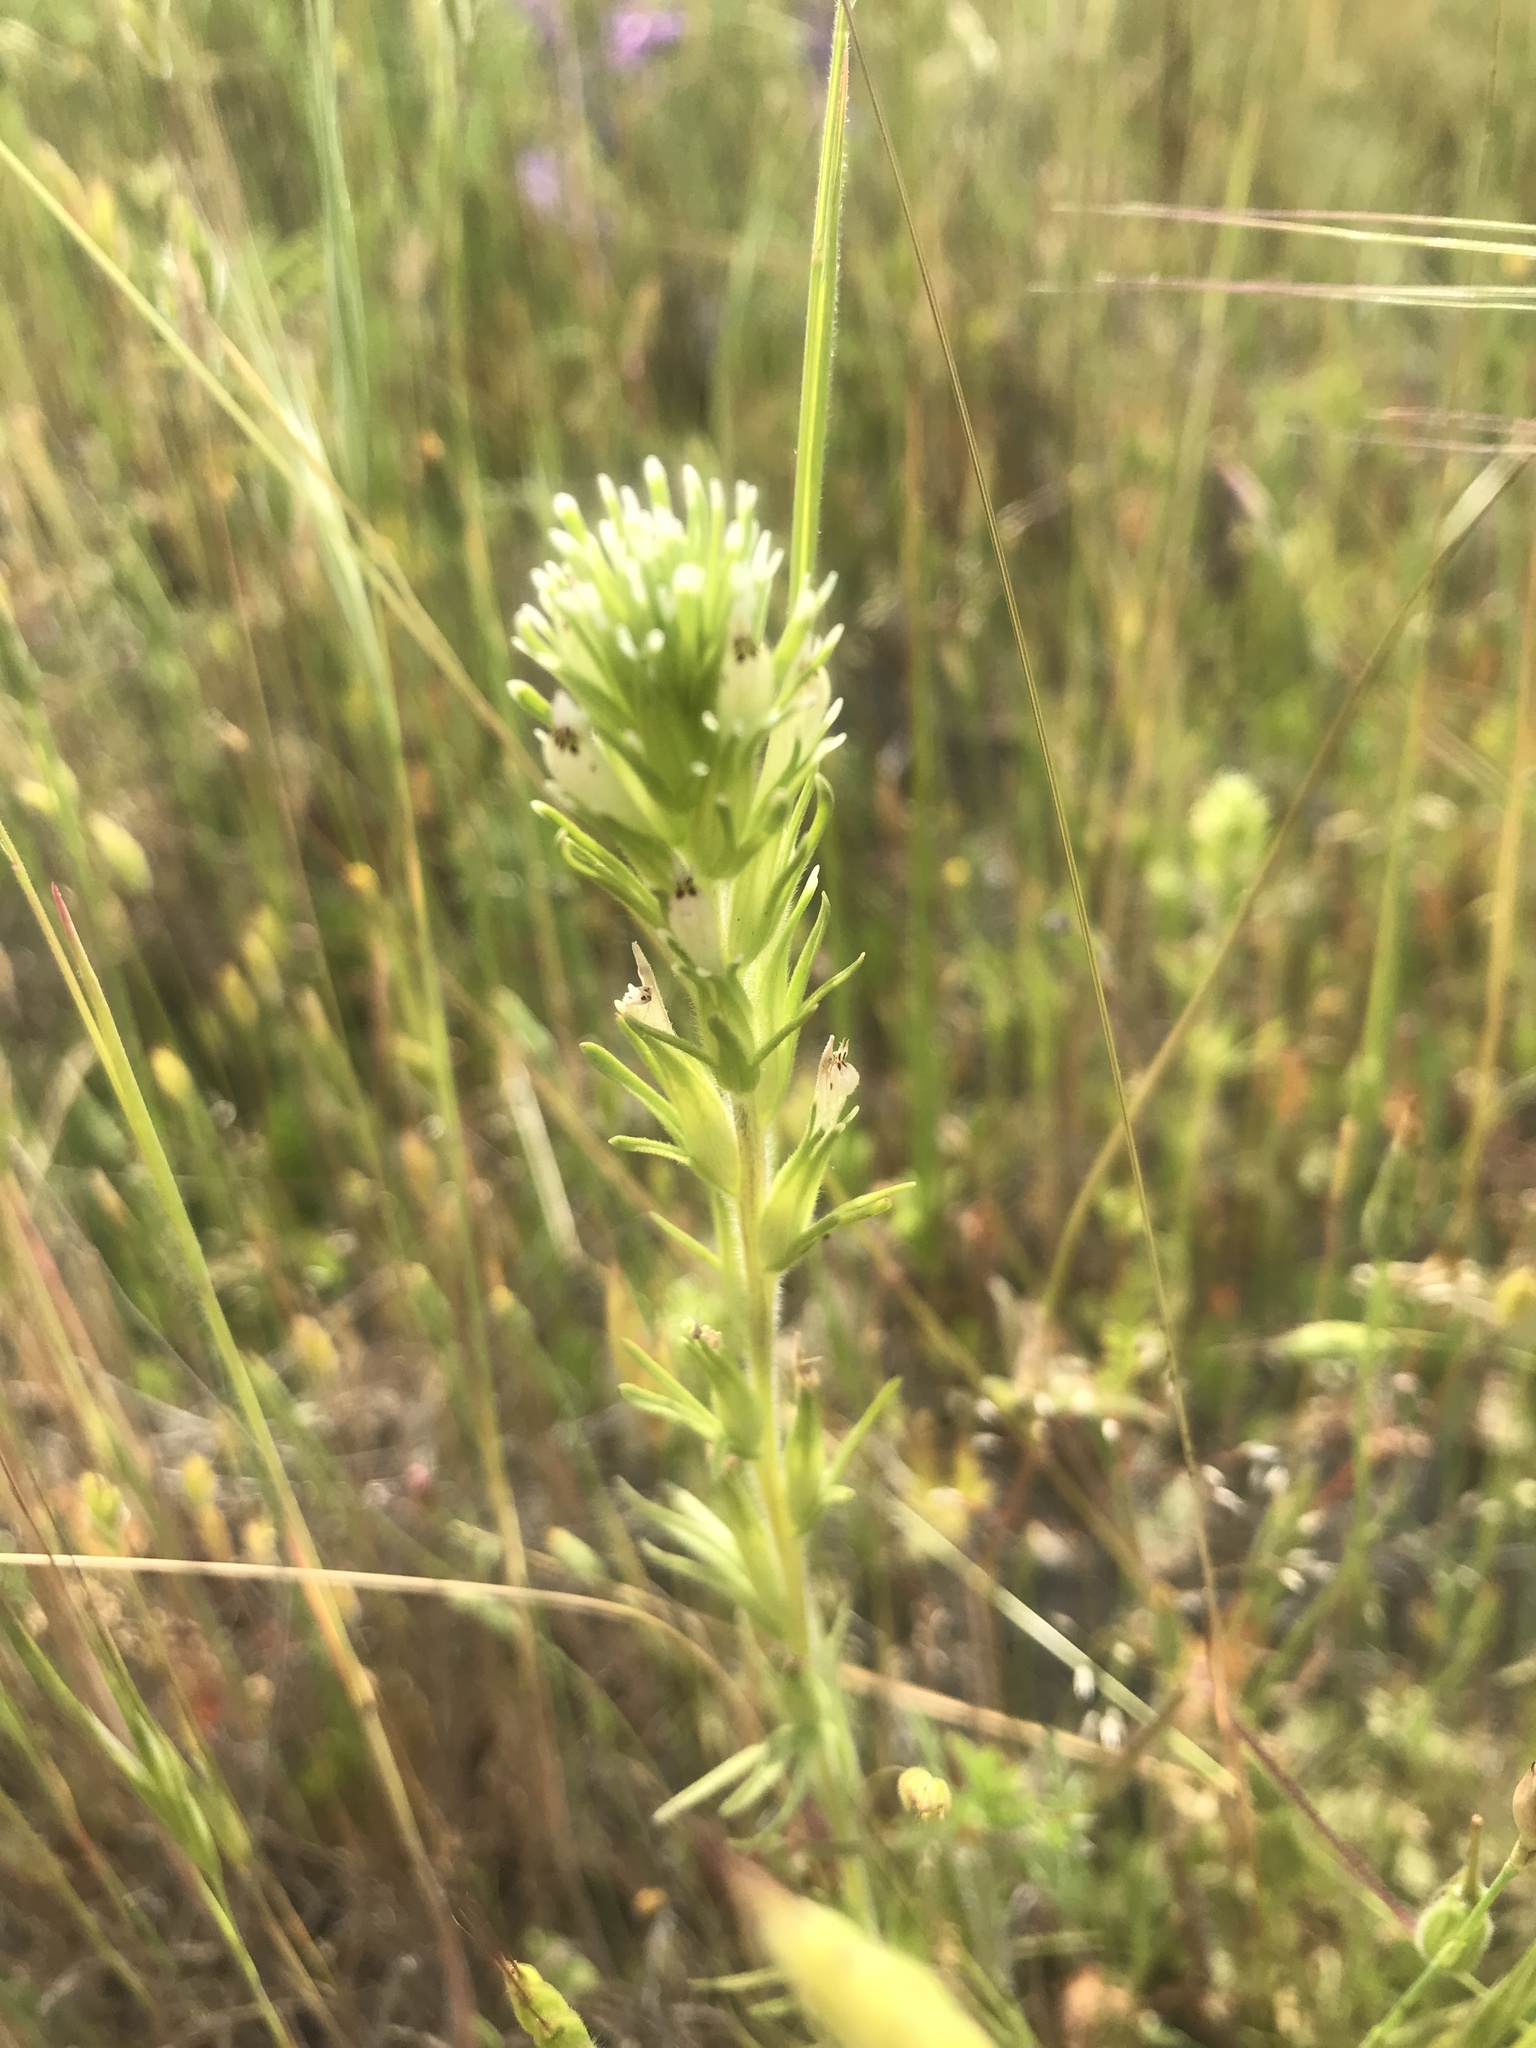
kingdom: Plantae
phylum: Tracheophyta
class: Magnoliopsida
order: Lamiales
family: Orobanchaceae
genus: Castilleja
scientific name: Castilleja attenuata
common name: Valley tassels
